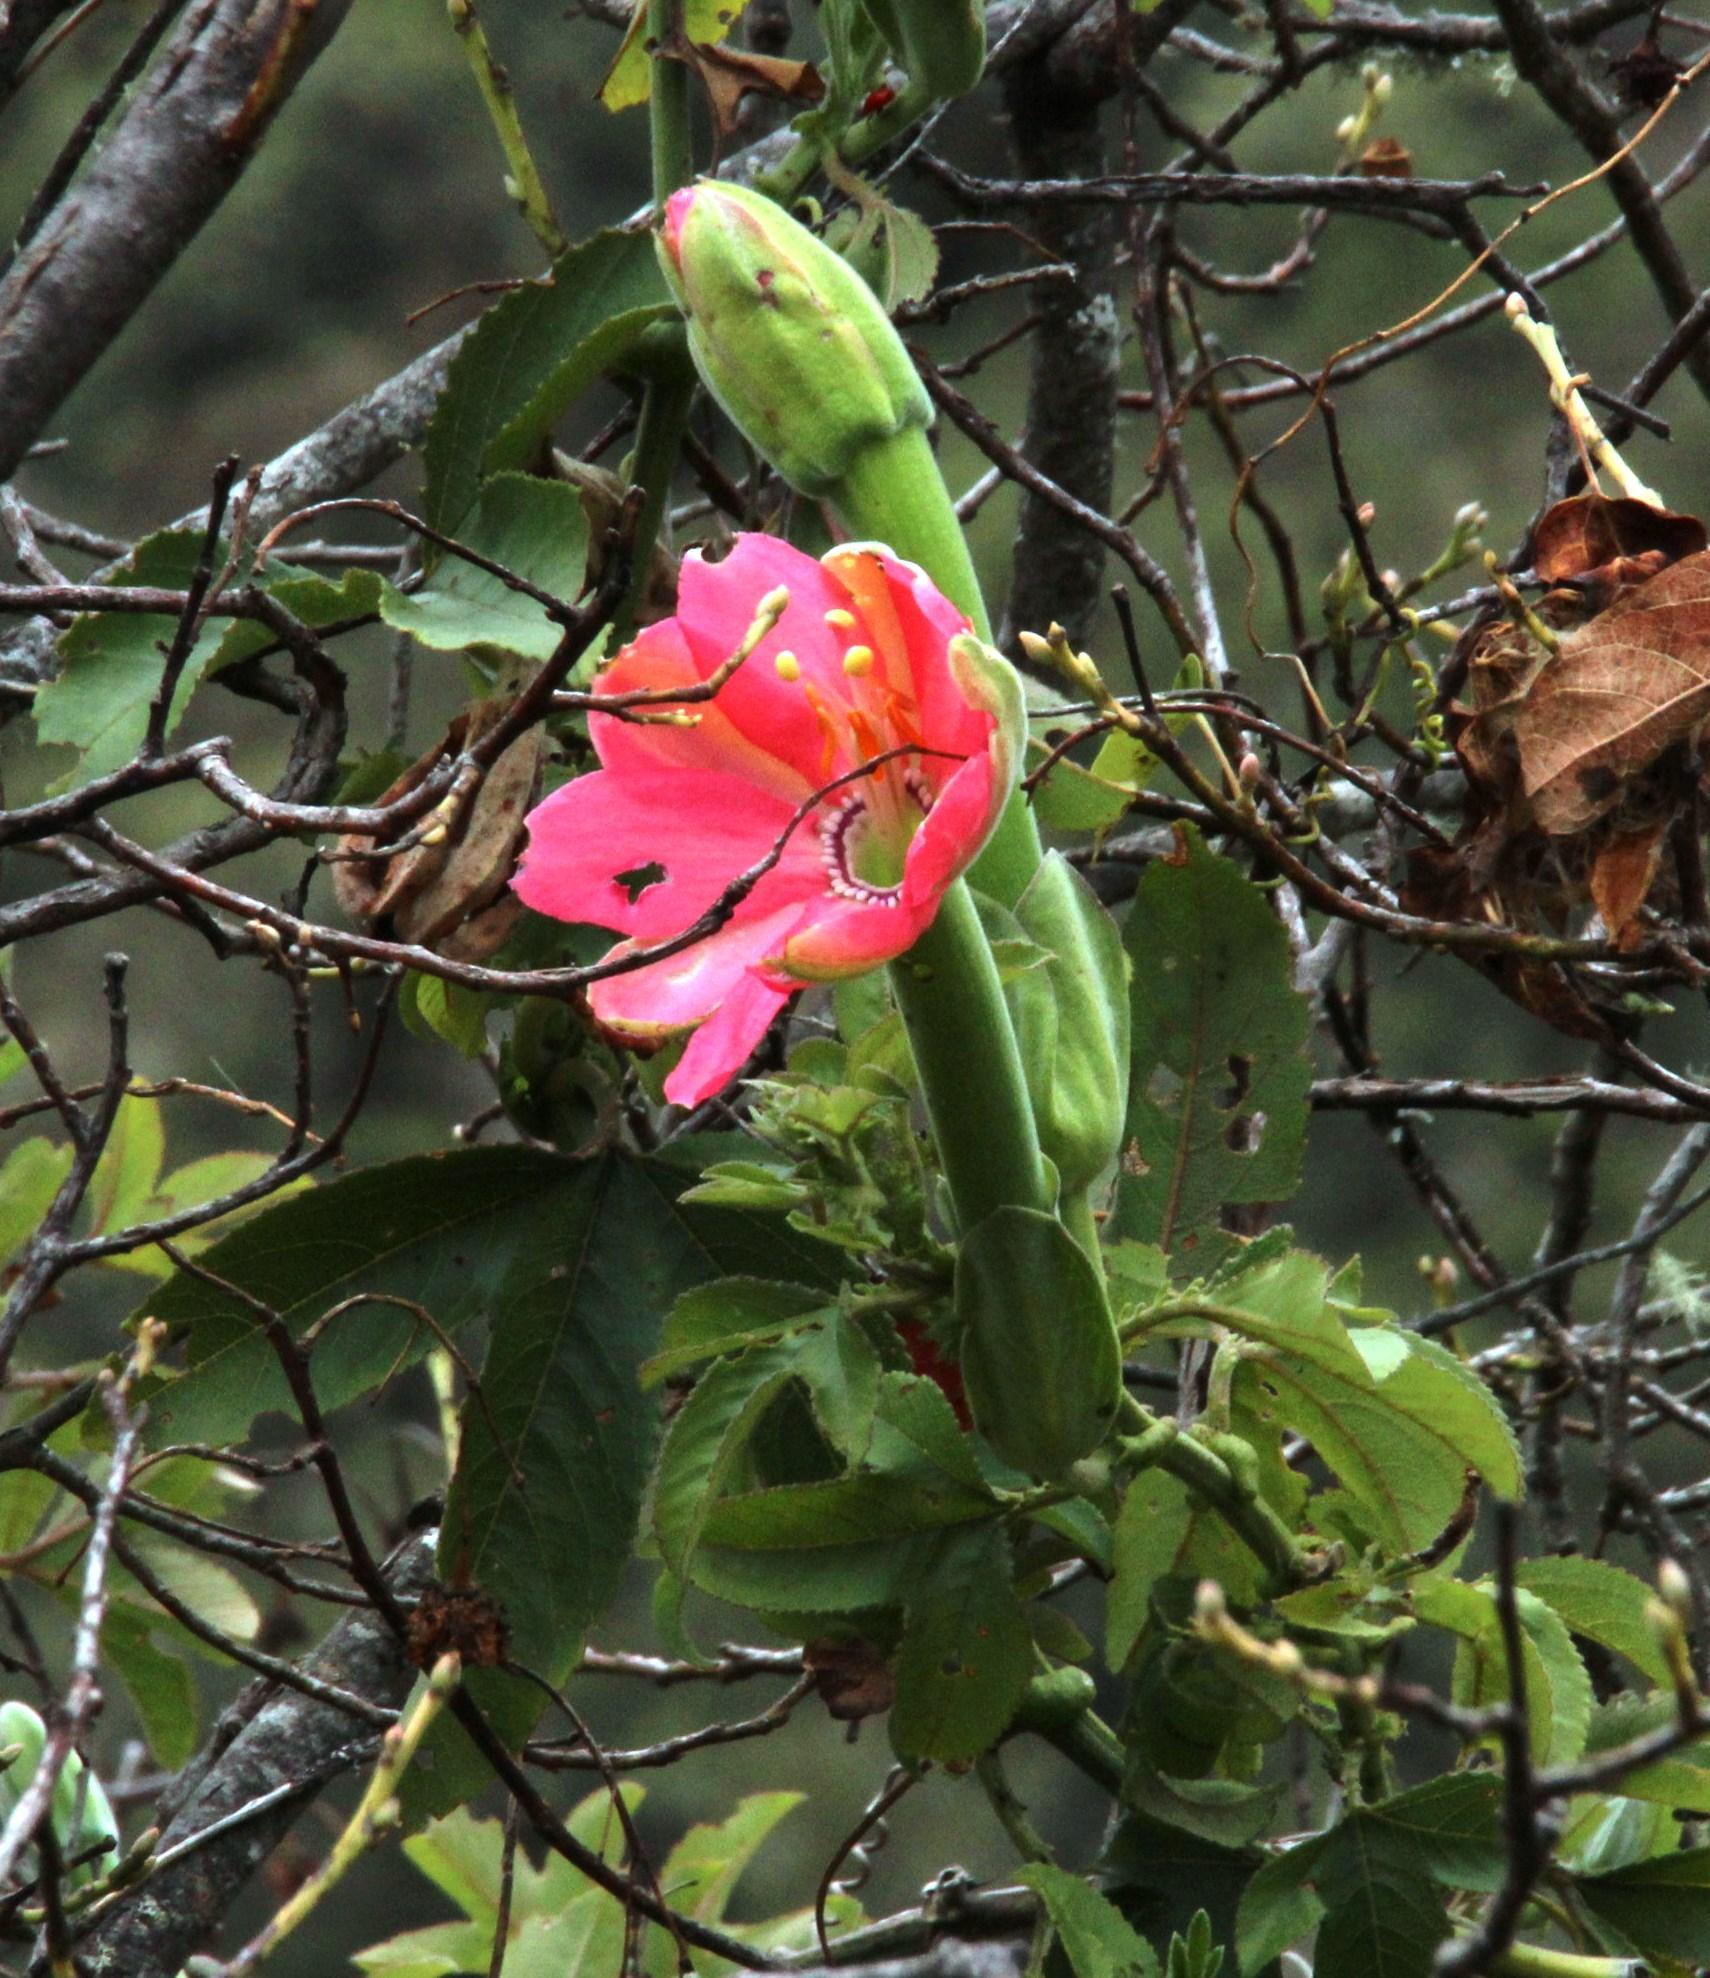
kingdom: Plantae
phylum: Tracheophyta
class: Magnoliopsida
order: Malpighiales
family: Passifloraceae
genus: Passiflora
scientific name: Passiflora mixta
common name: Passion flower
